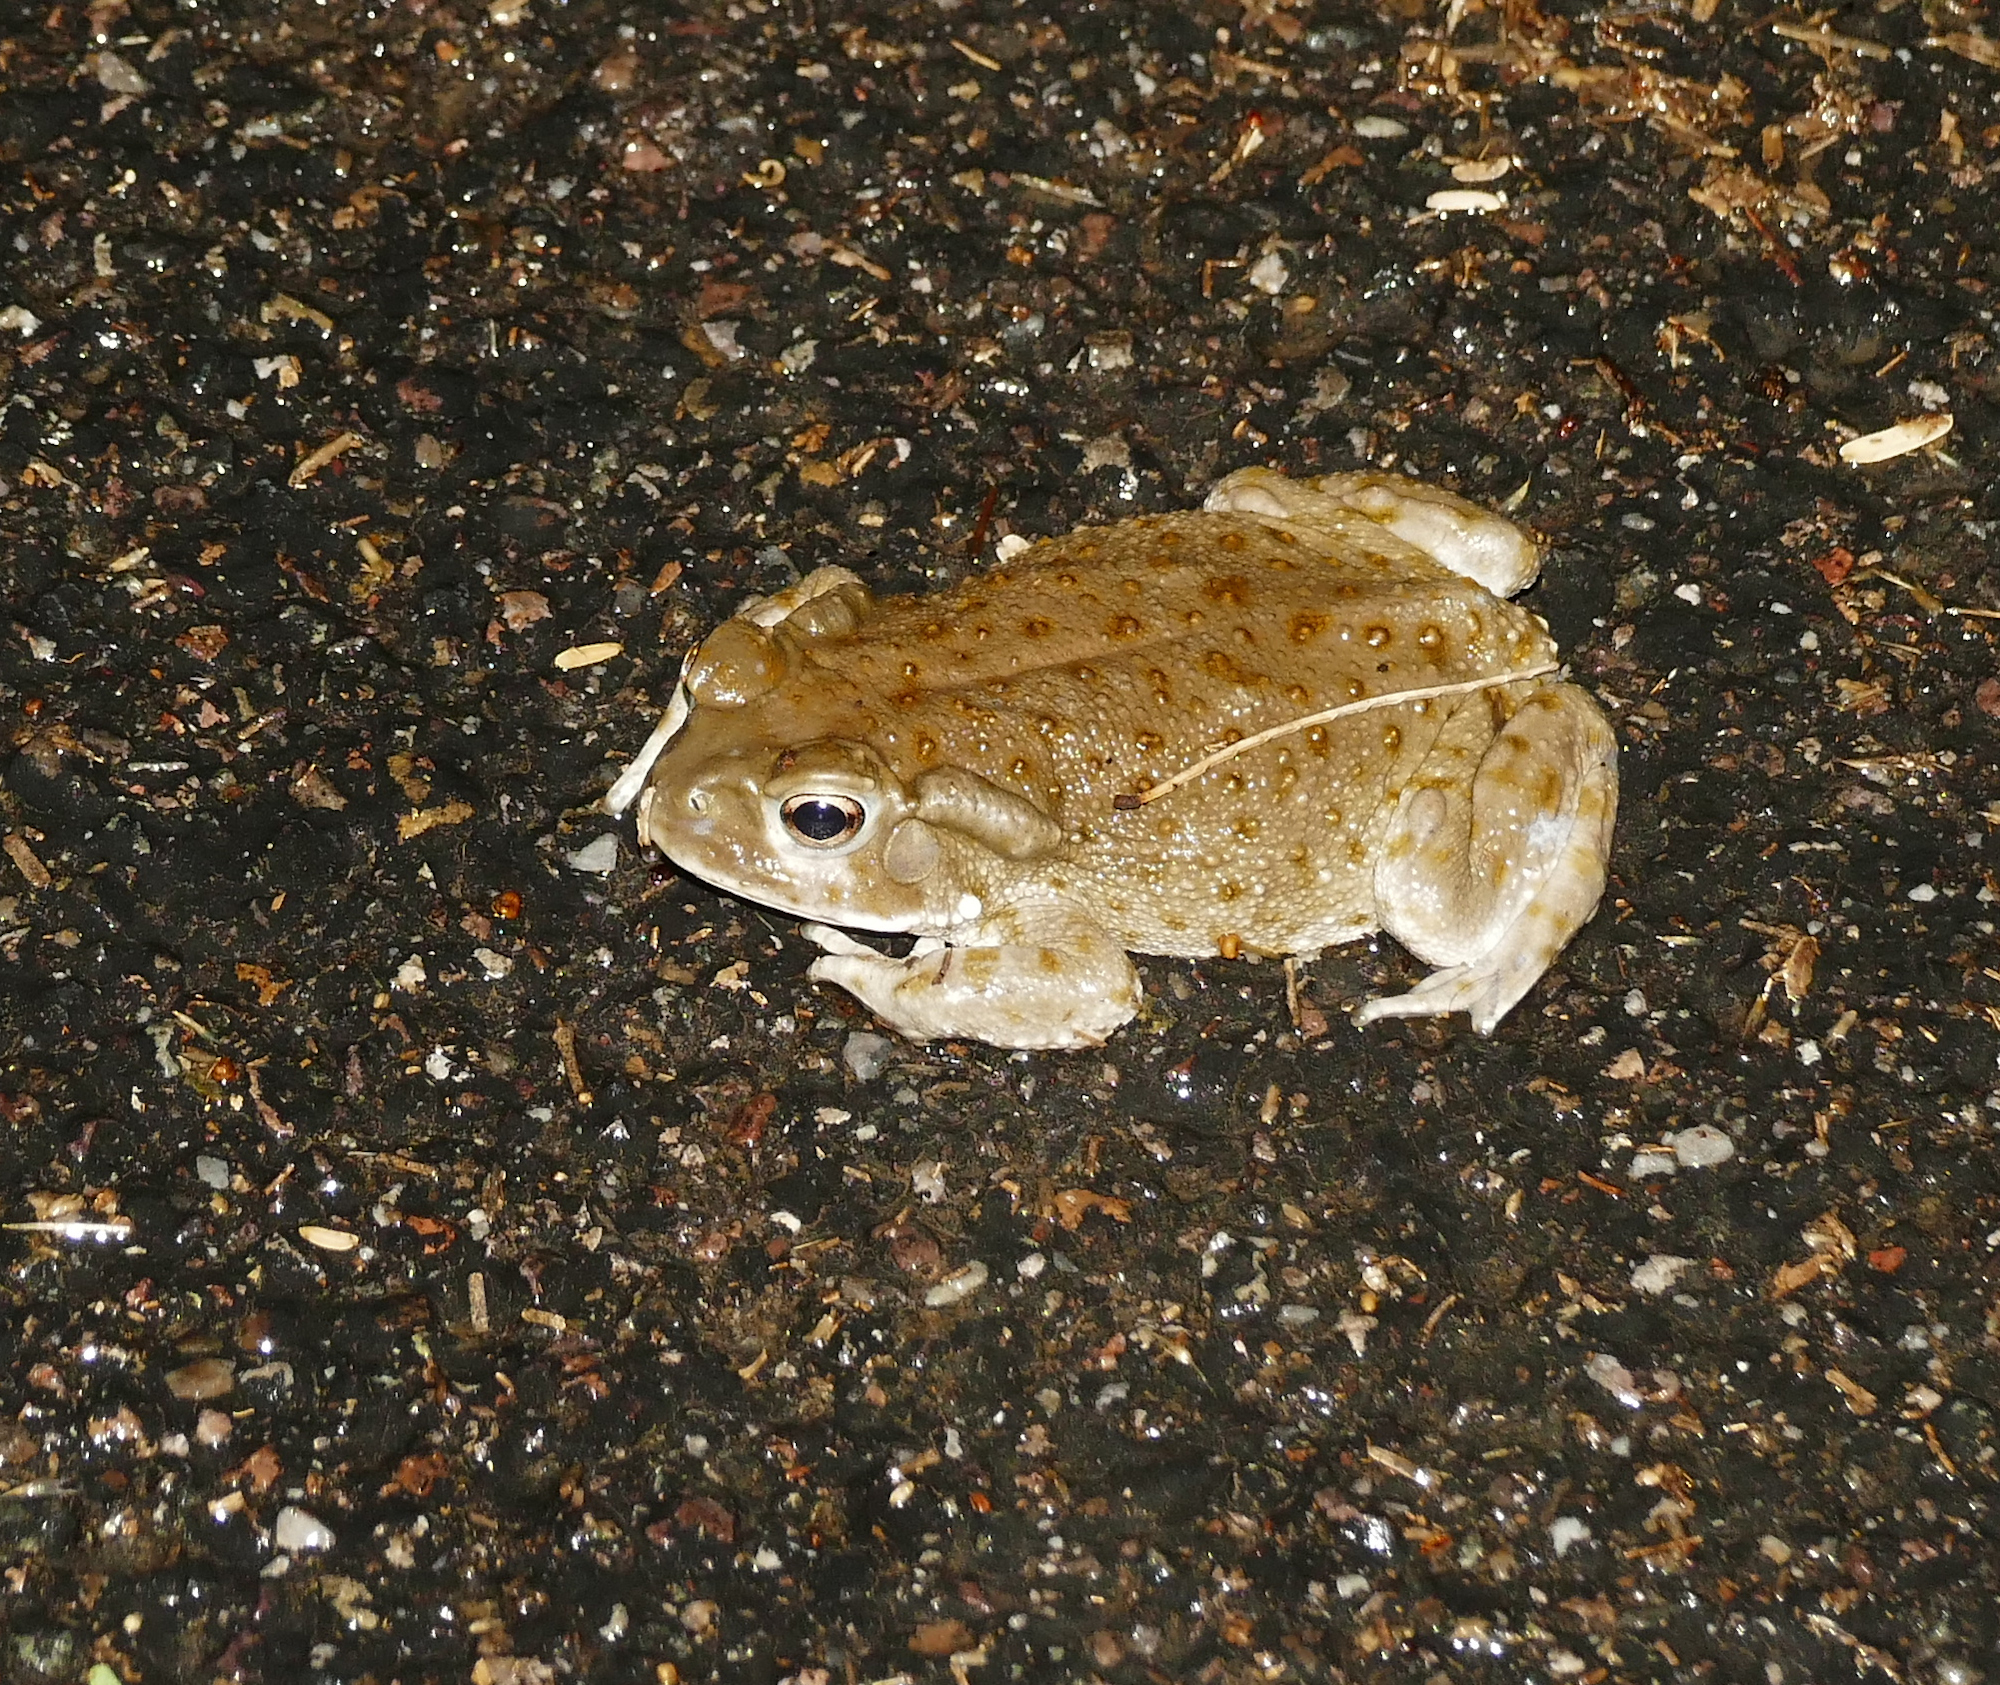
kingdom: Animalia
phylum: Chordata
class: Amphibia
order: Anura
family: Bufonidae
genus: Incilius
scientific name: Incilius alvarius
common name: Sonoran desert toad
